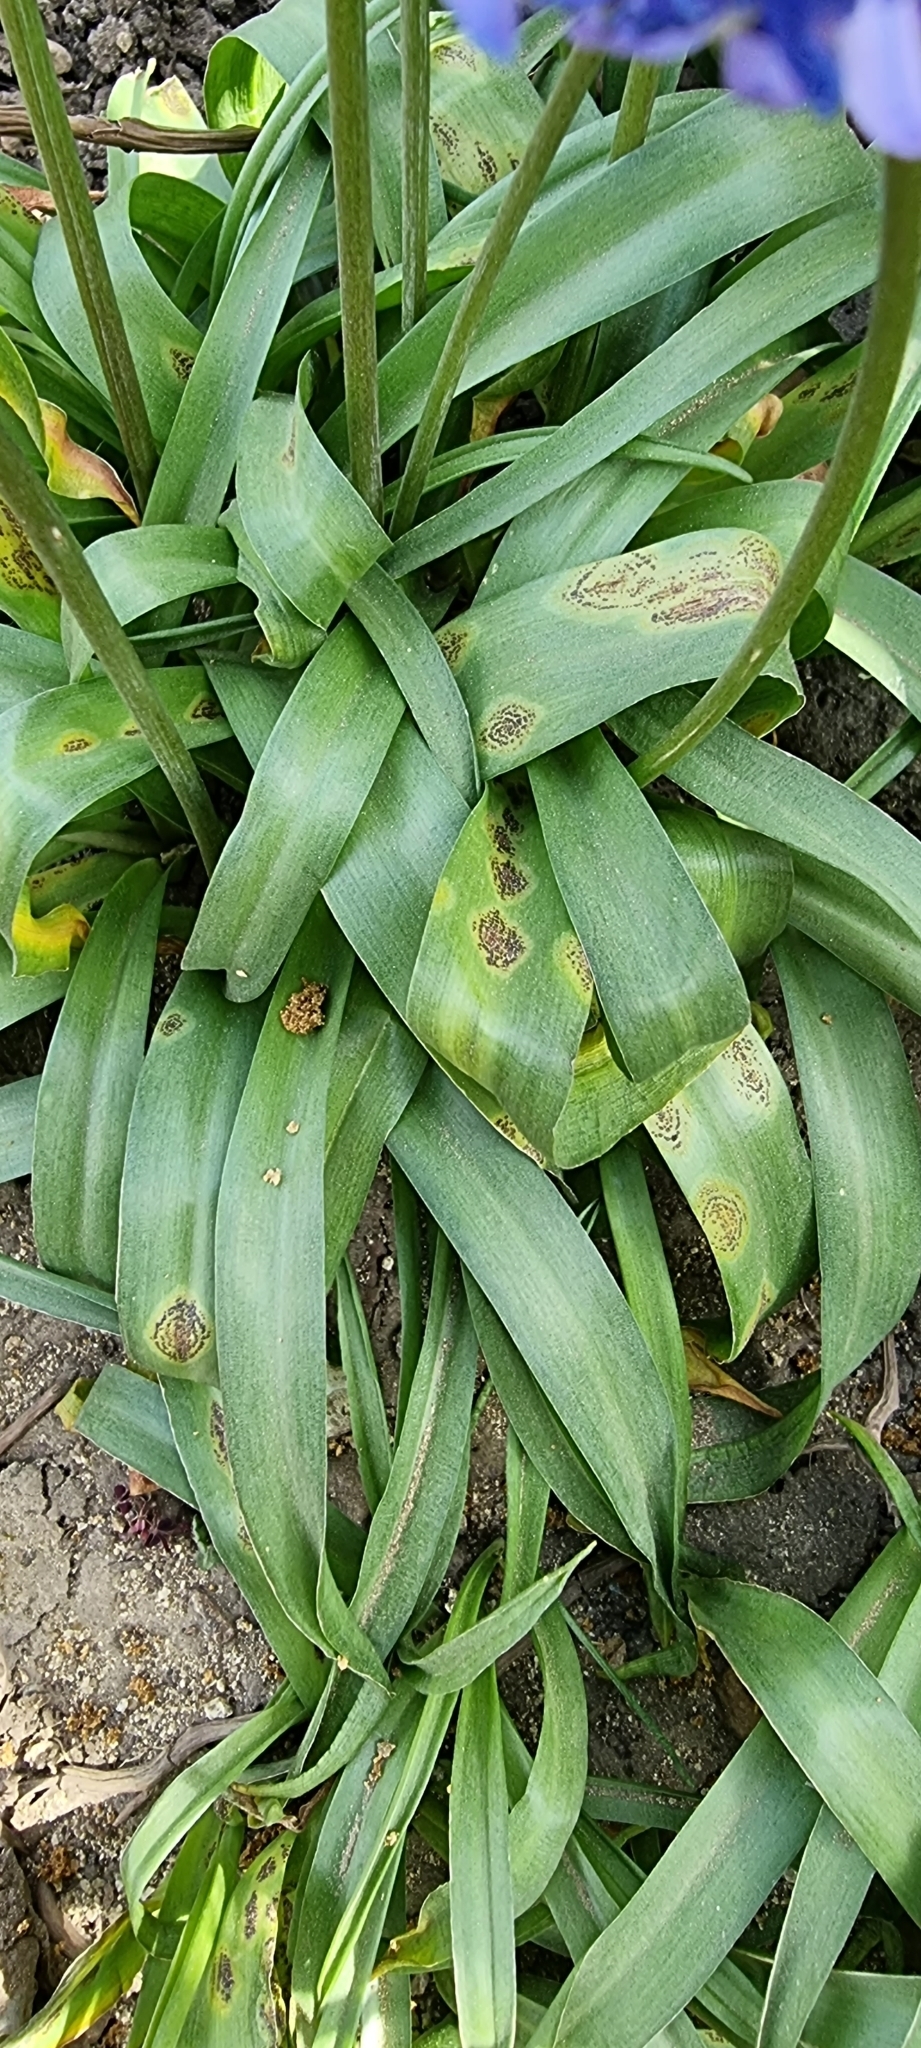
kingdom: Fungi
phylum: Basidiomycota
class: Pucciniomycetes
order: Pucciniales
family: Pucciniaceae
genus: Uromyces
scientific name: Uromyces hyacinthi
